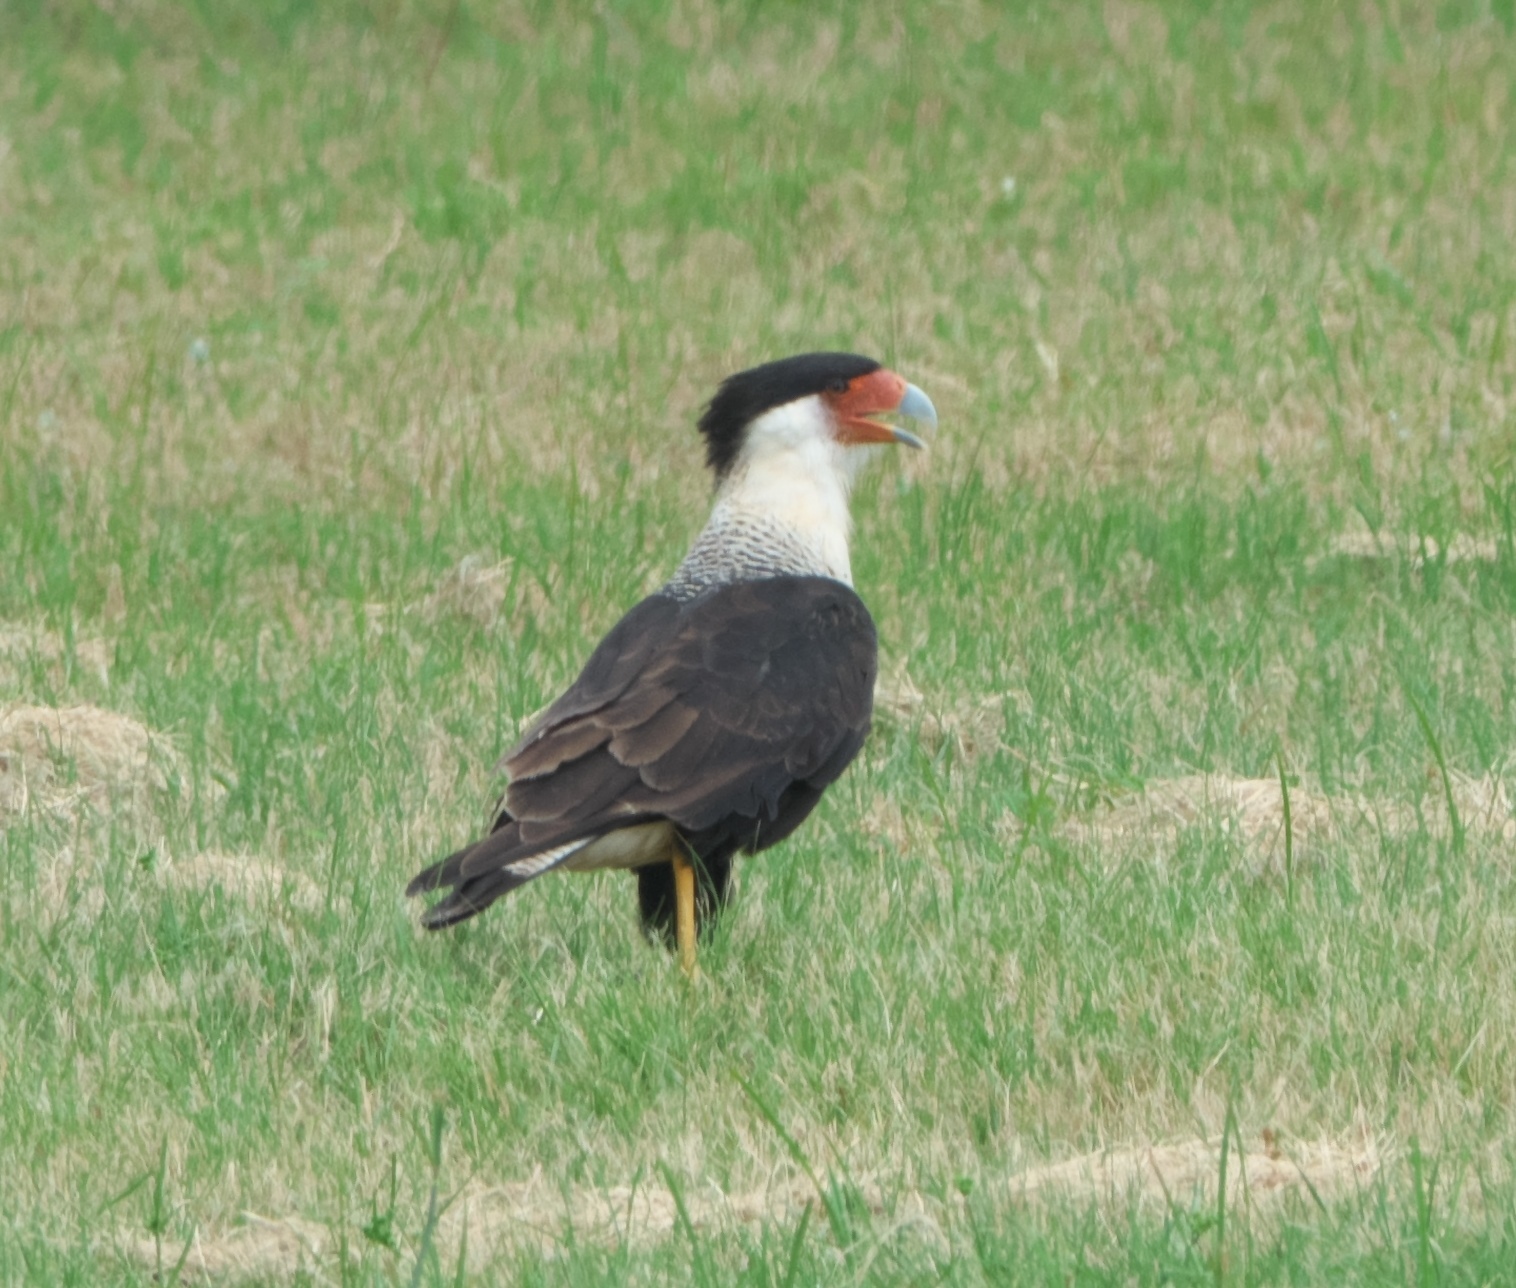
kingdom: Animalia
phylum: Chordata
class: Aves
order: Falconiformes
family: Falconidae
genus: Caracara
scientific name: Caracara plancus
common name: Southern caracara
